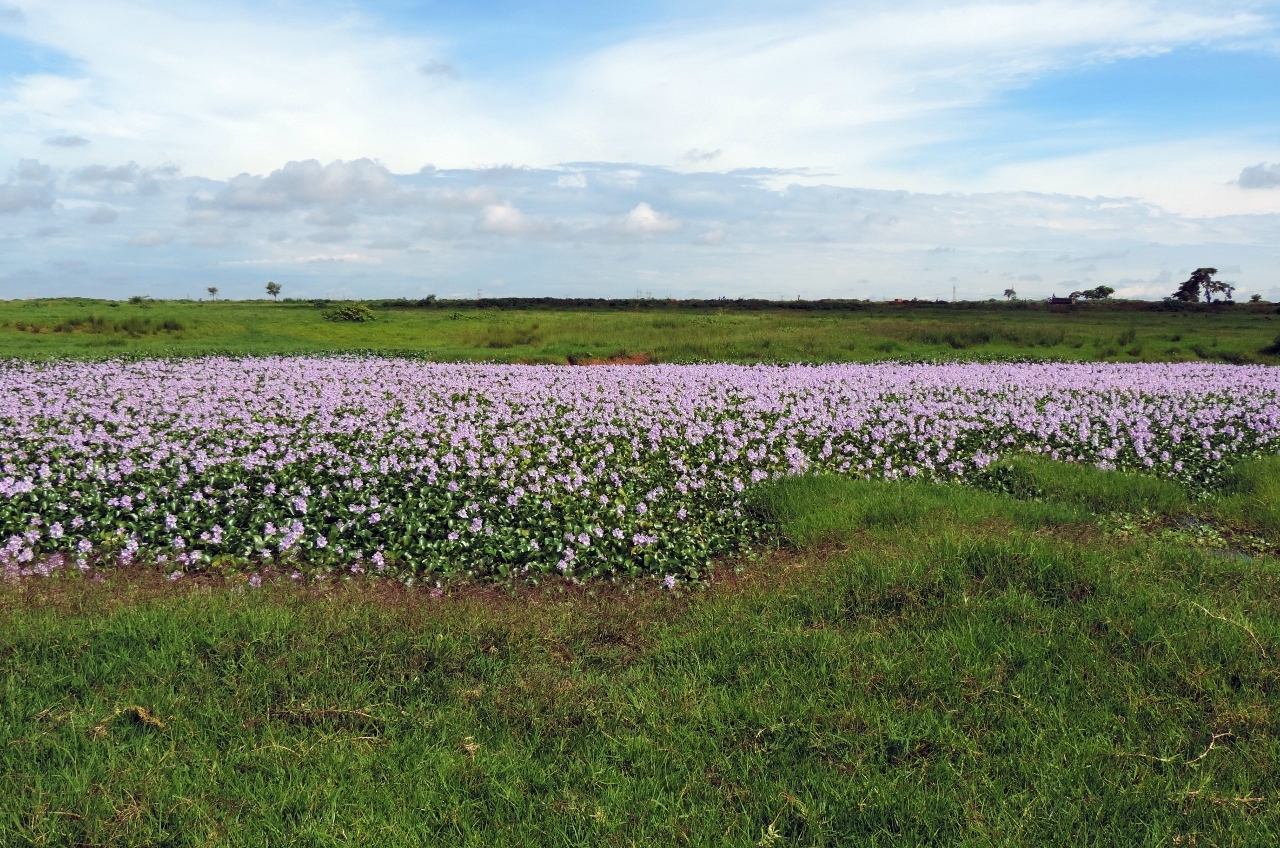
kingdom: Plantae
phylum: Tracheophyta
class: Liliopsida
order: Commelinales
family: Pontederiaceae
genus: Pontederia
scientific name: Pontederia crassipes
